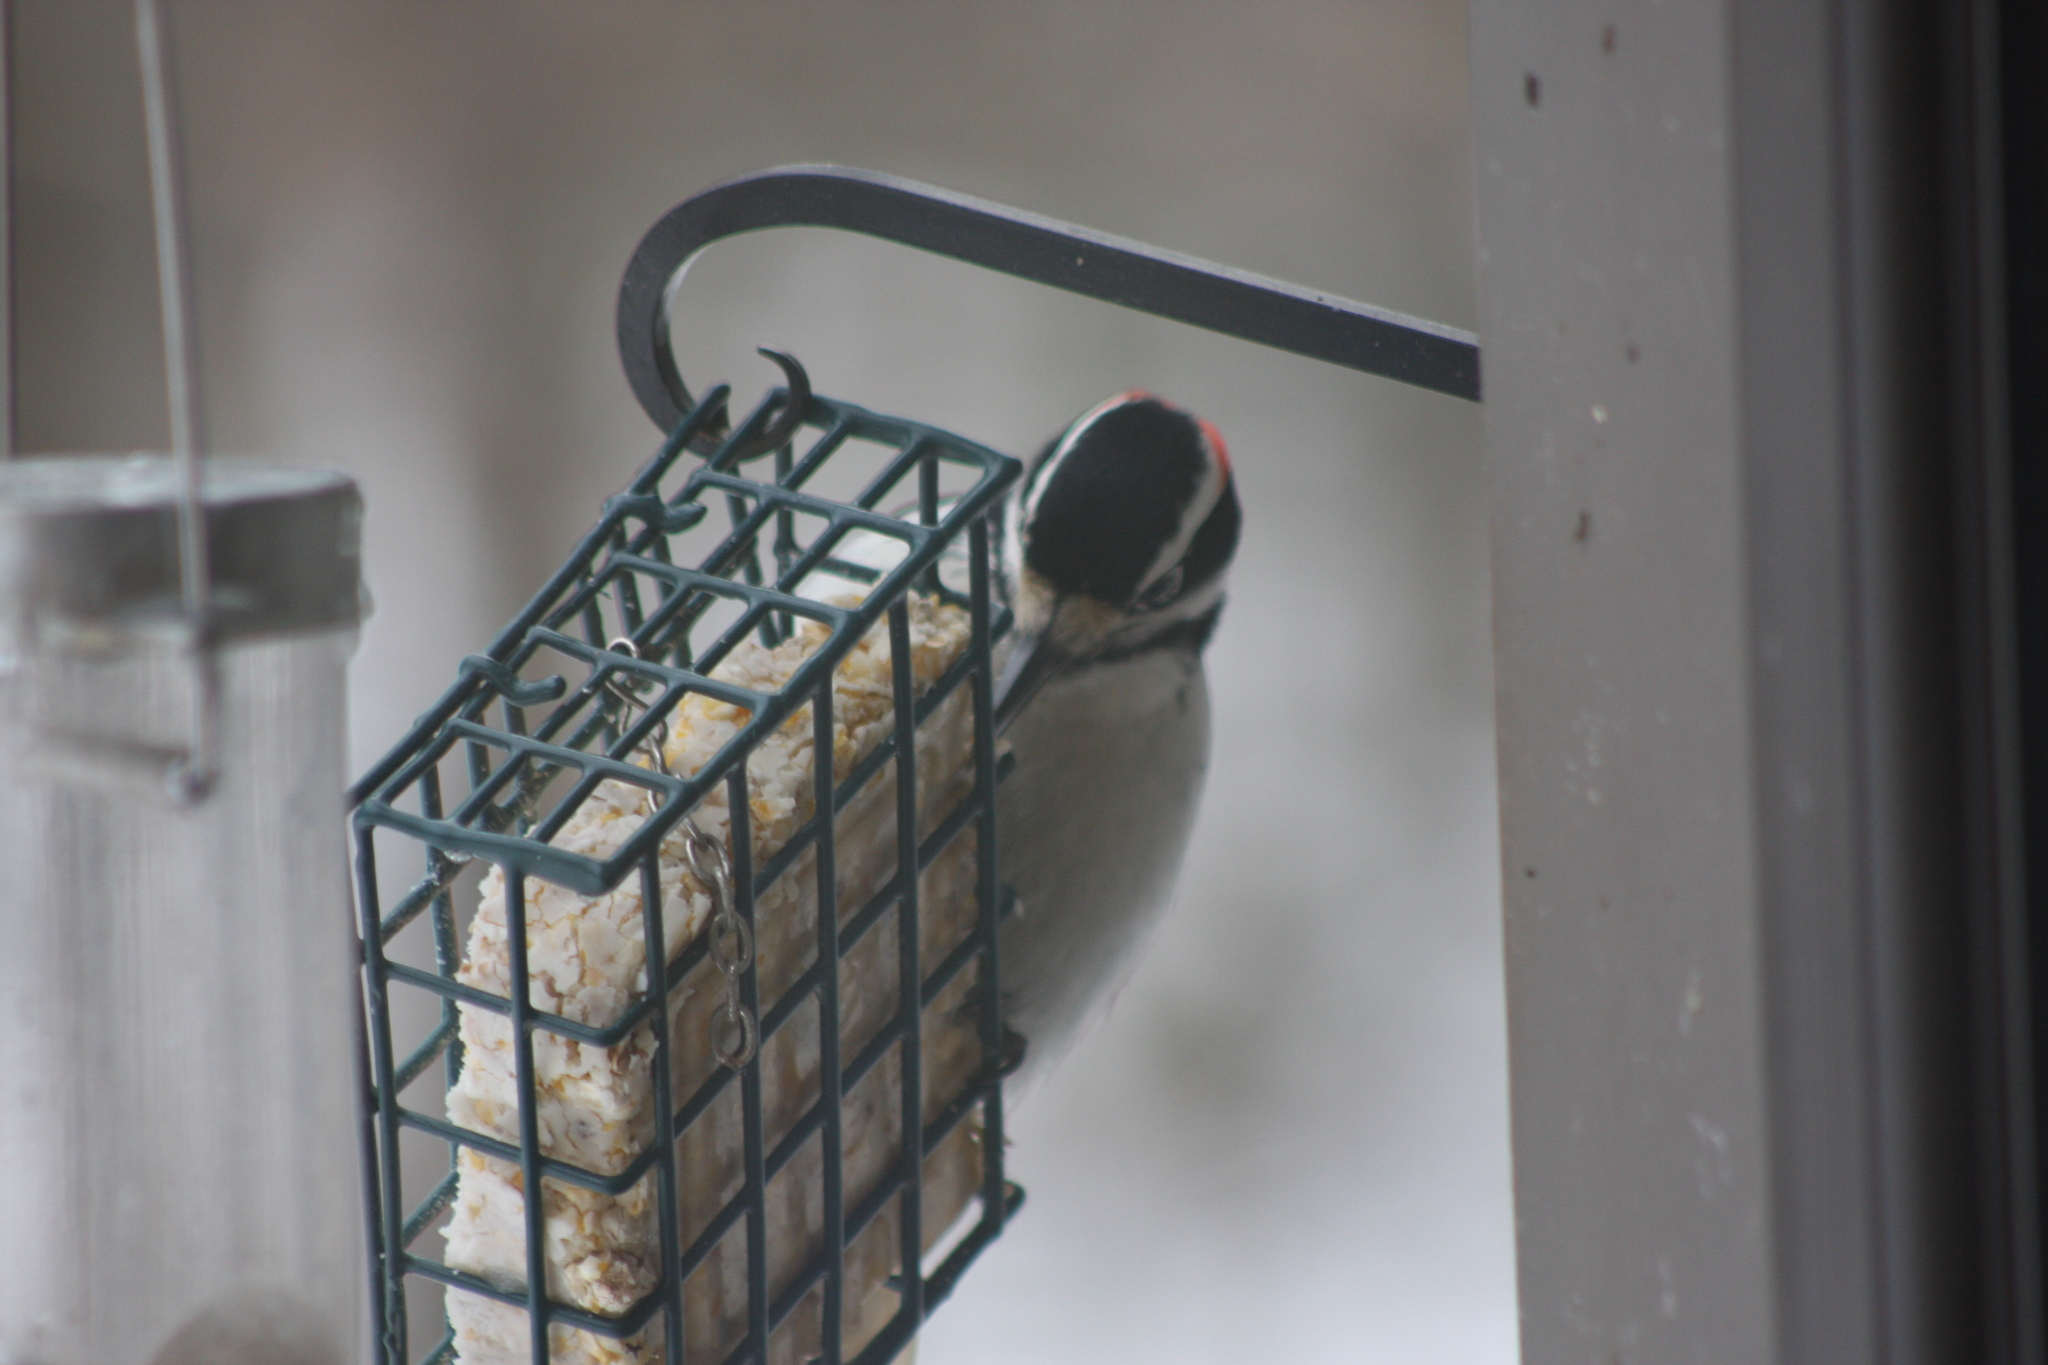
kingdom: Animalia
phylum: Chordata
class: Aves
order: Piciformes
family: Picidae
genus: Leuconotopicus
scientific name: Leuconotopicus villosus
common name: Hairy woodpecker
